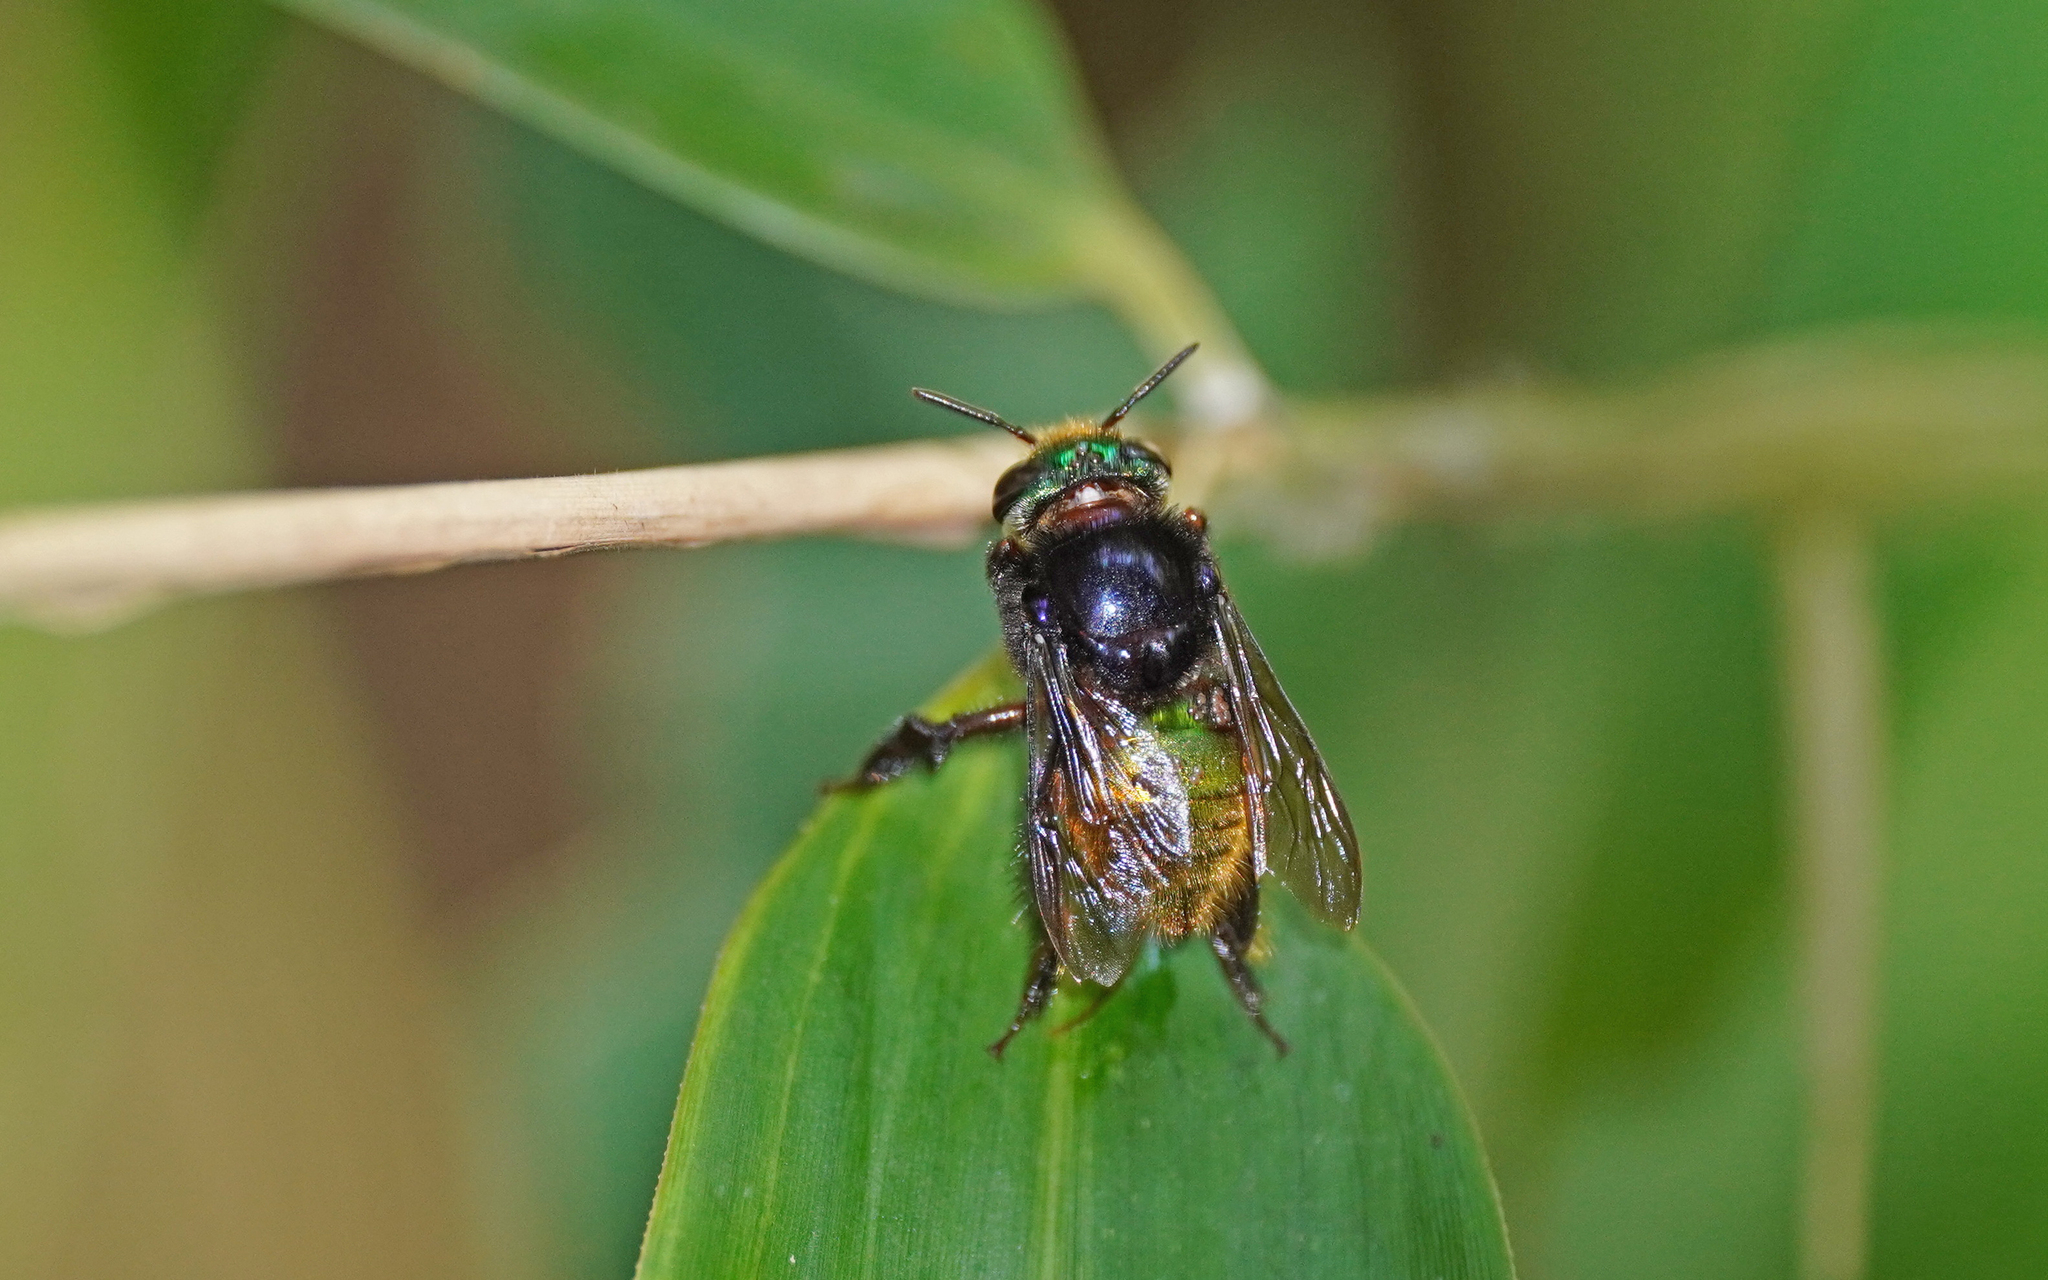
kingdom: Animalia
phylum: Arthropoda
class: Insecta
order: Hymenoptera
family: Apidae
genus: Euglossa
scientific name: Euglossa intersecta
